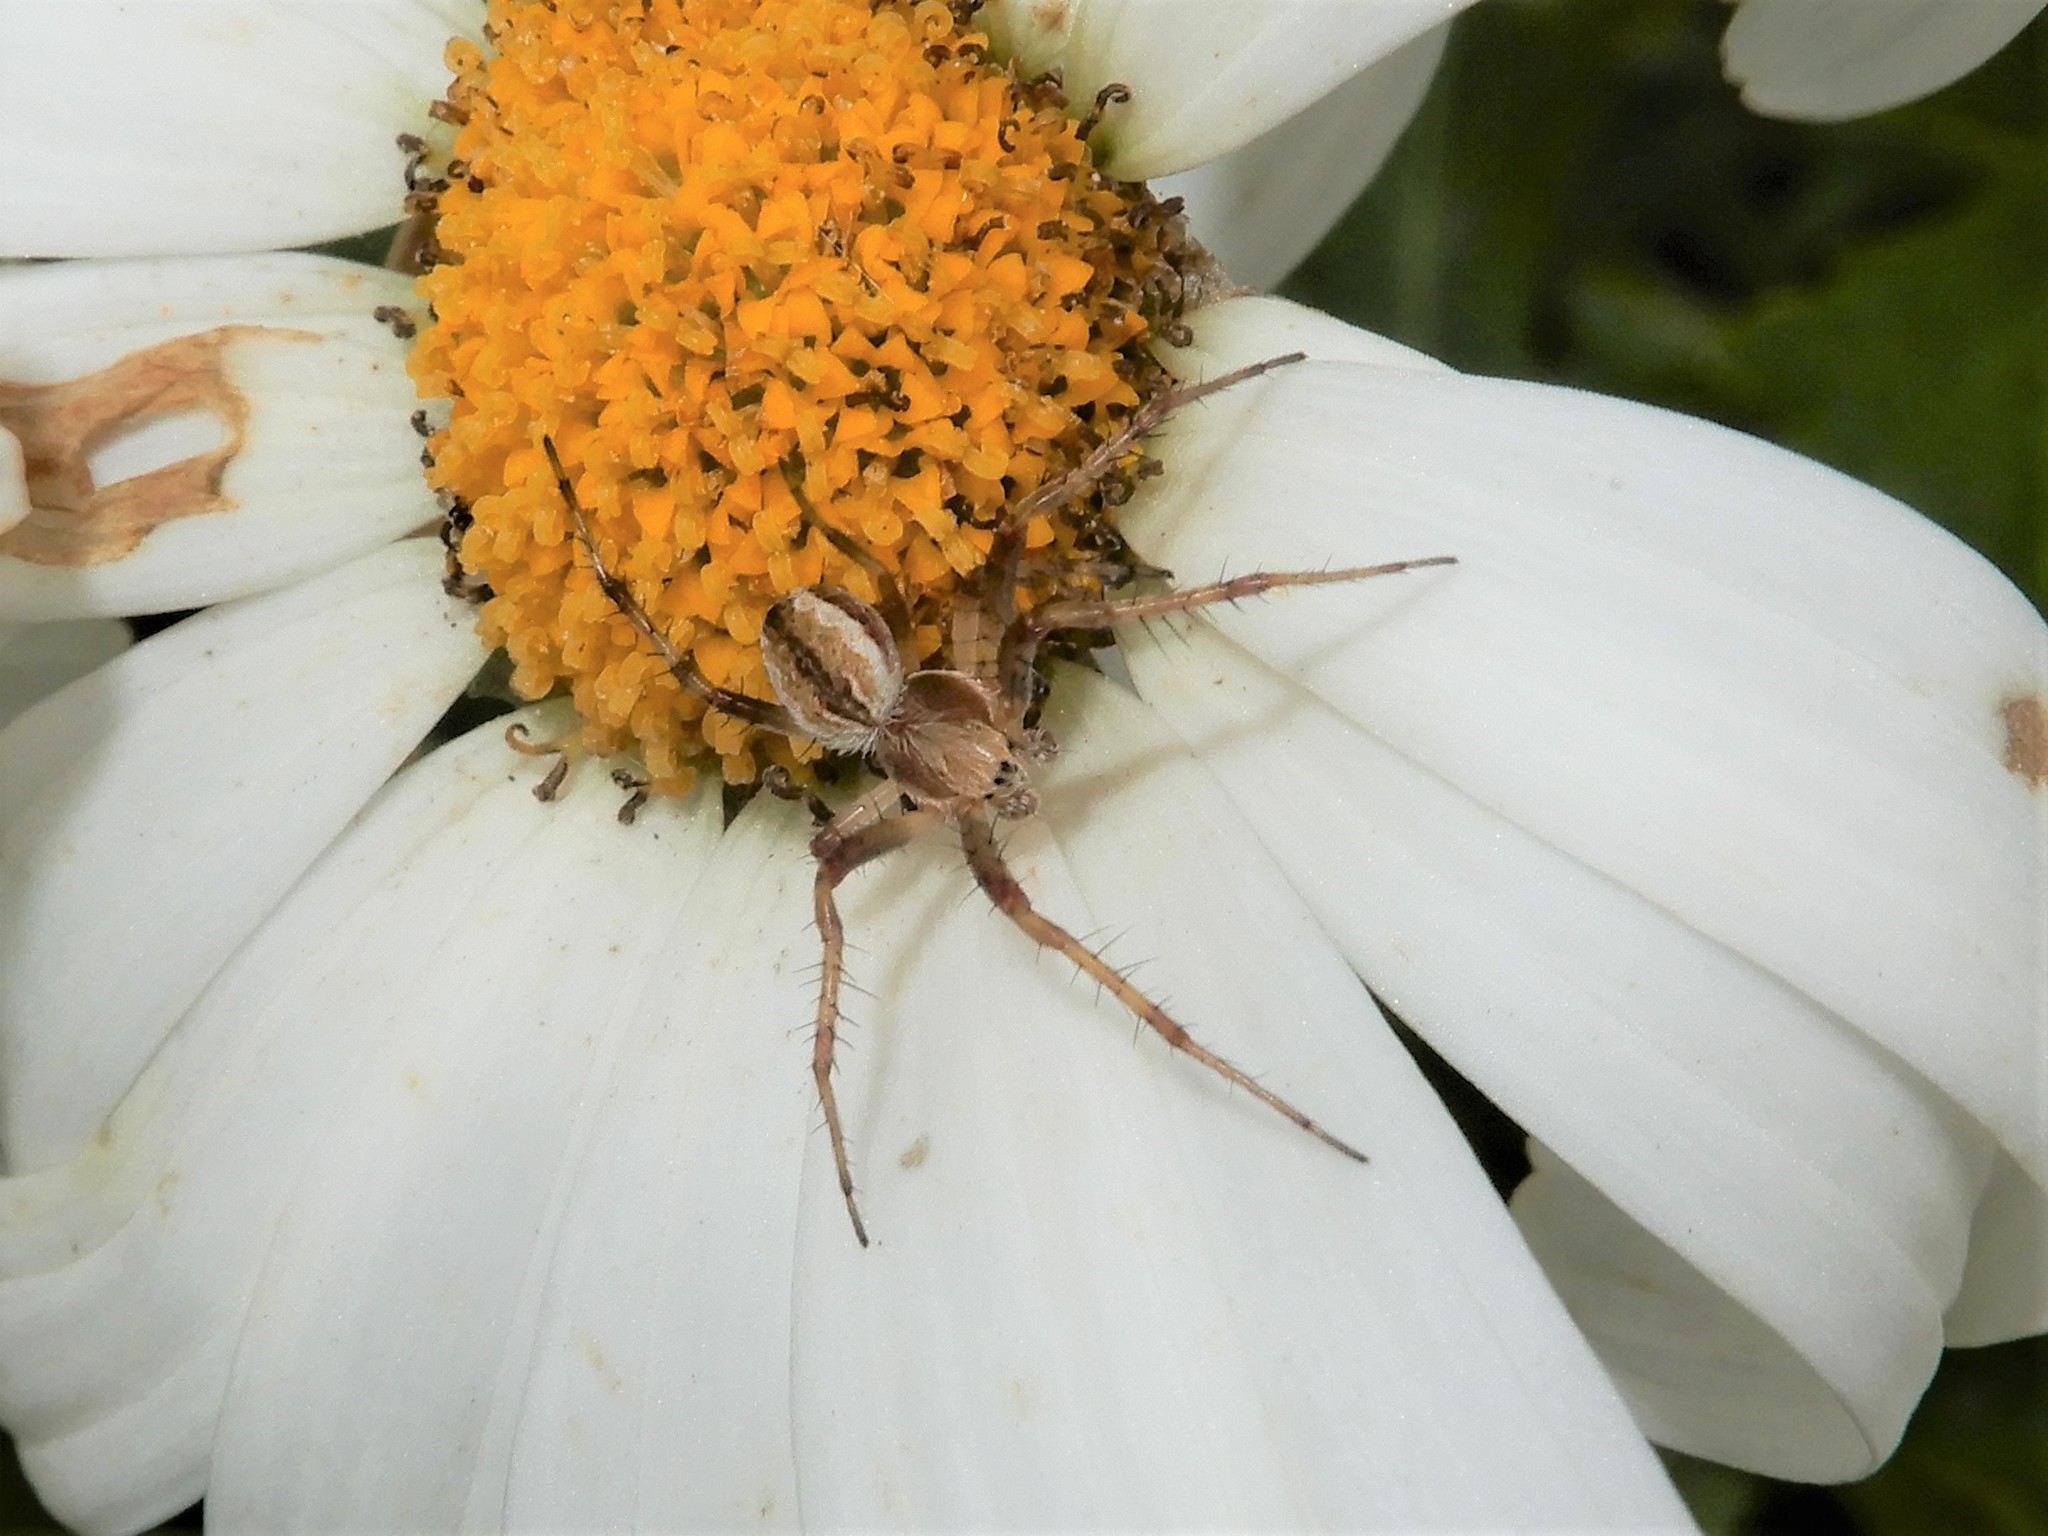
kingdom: Animalia
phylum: Arthropoda
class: Arachnida
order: Araneae
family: Araneidae
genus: Salsa
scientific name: Salsa fuliginata
